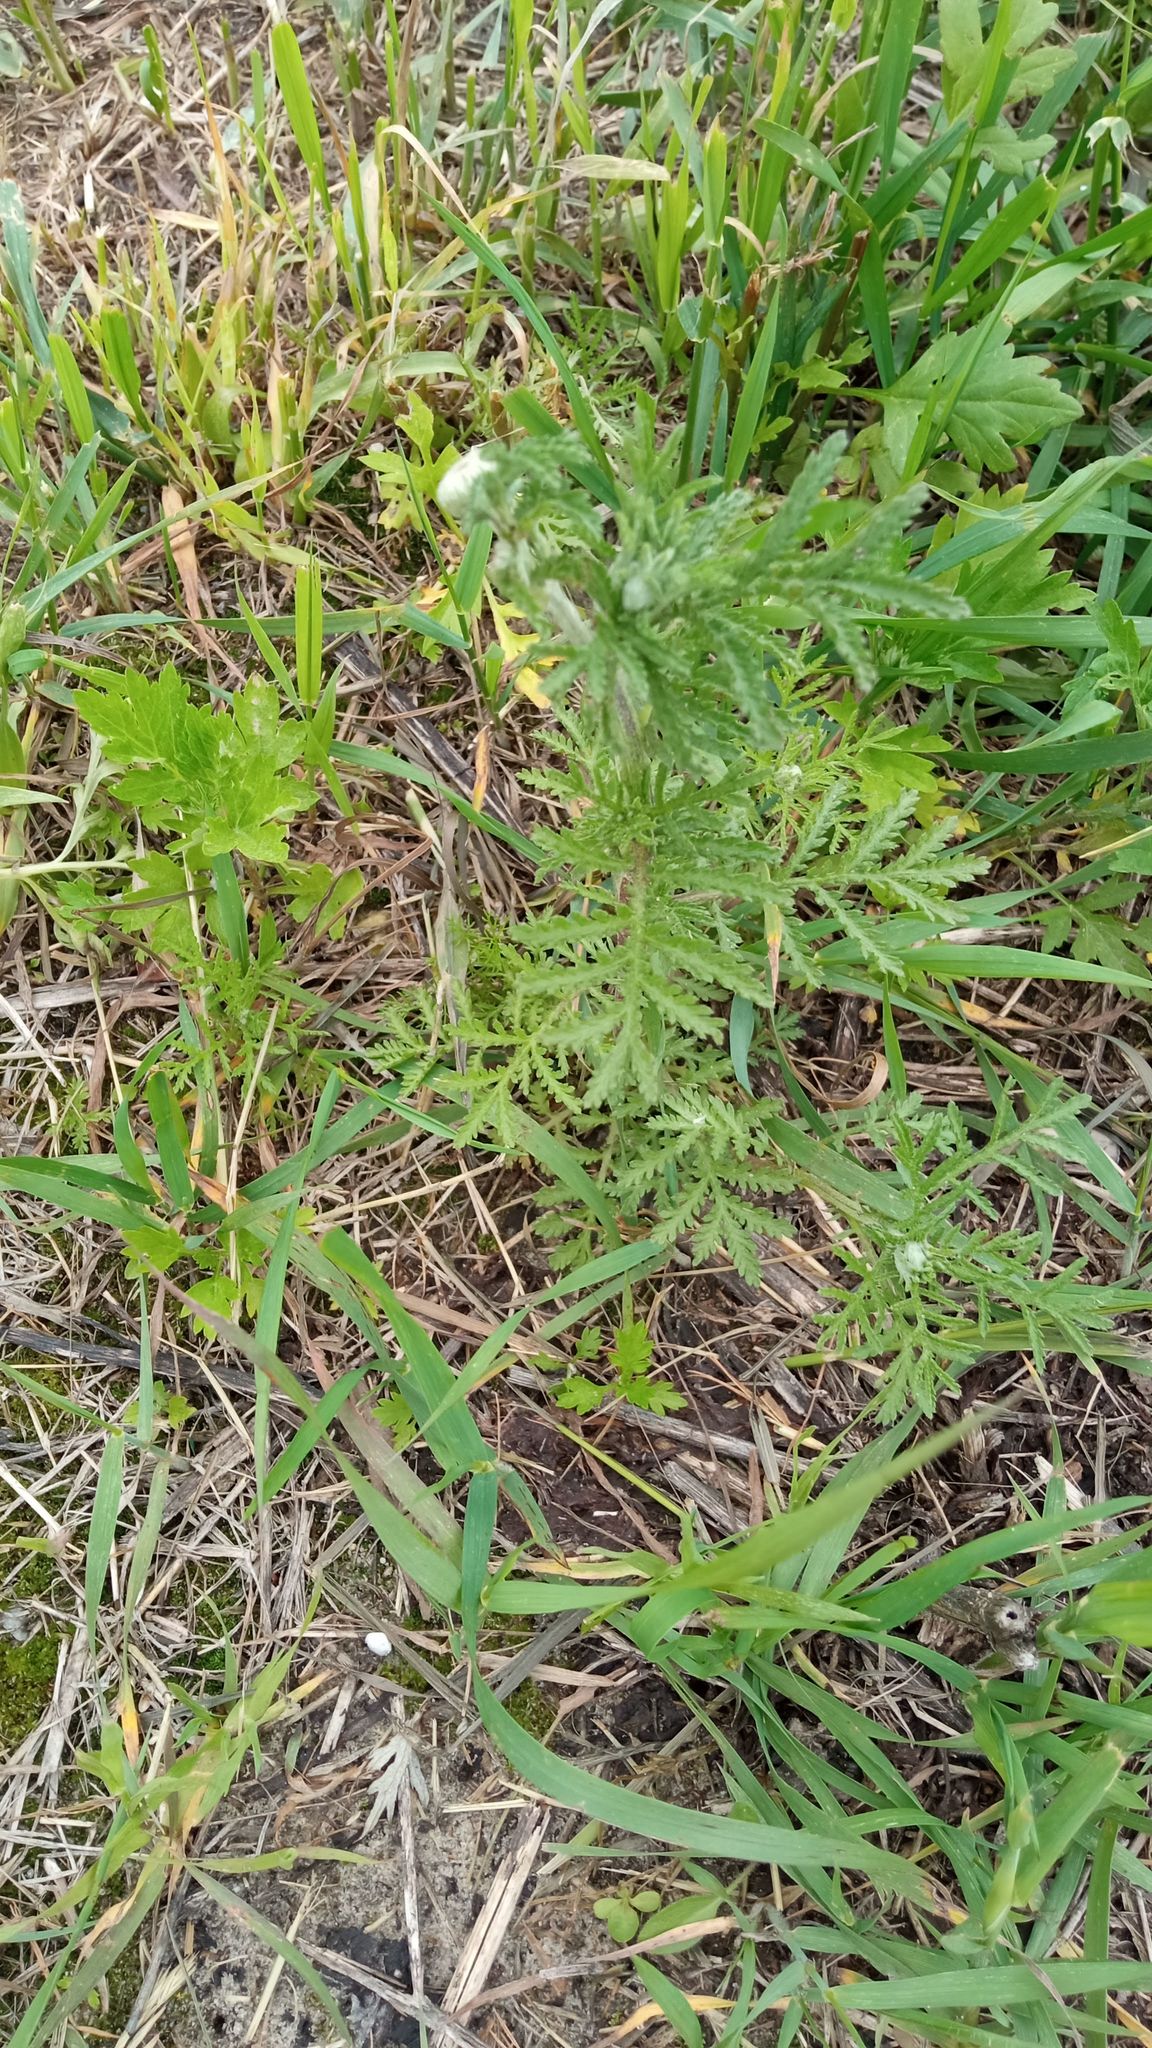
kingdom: Plantae
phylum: Tracheophyta
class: Magnoliopsida
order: Asterales
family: Asteraceae
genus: Cota
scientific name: Cota tinctoria
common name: Golden chamomile
